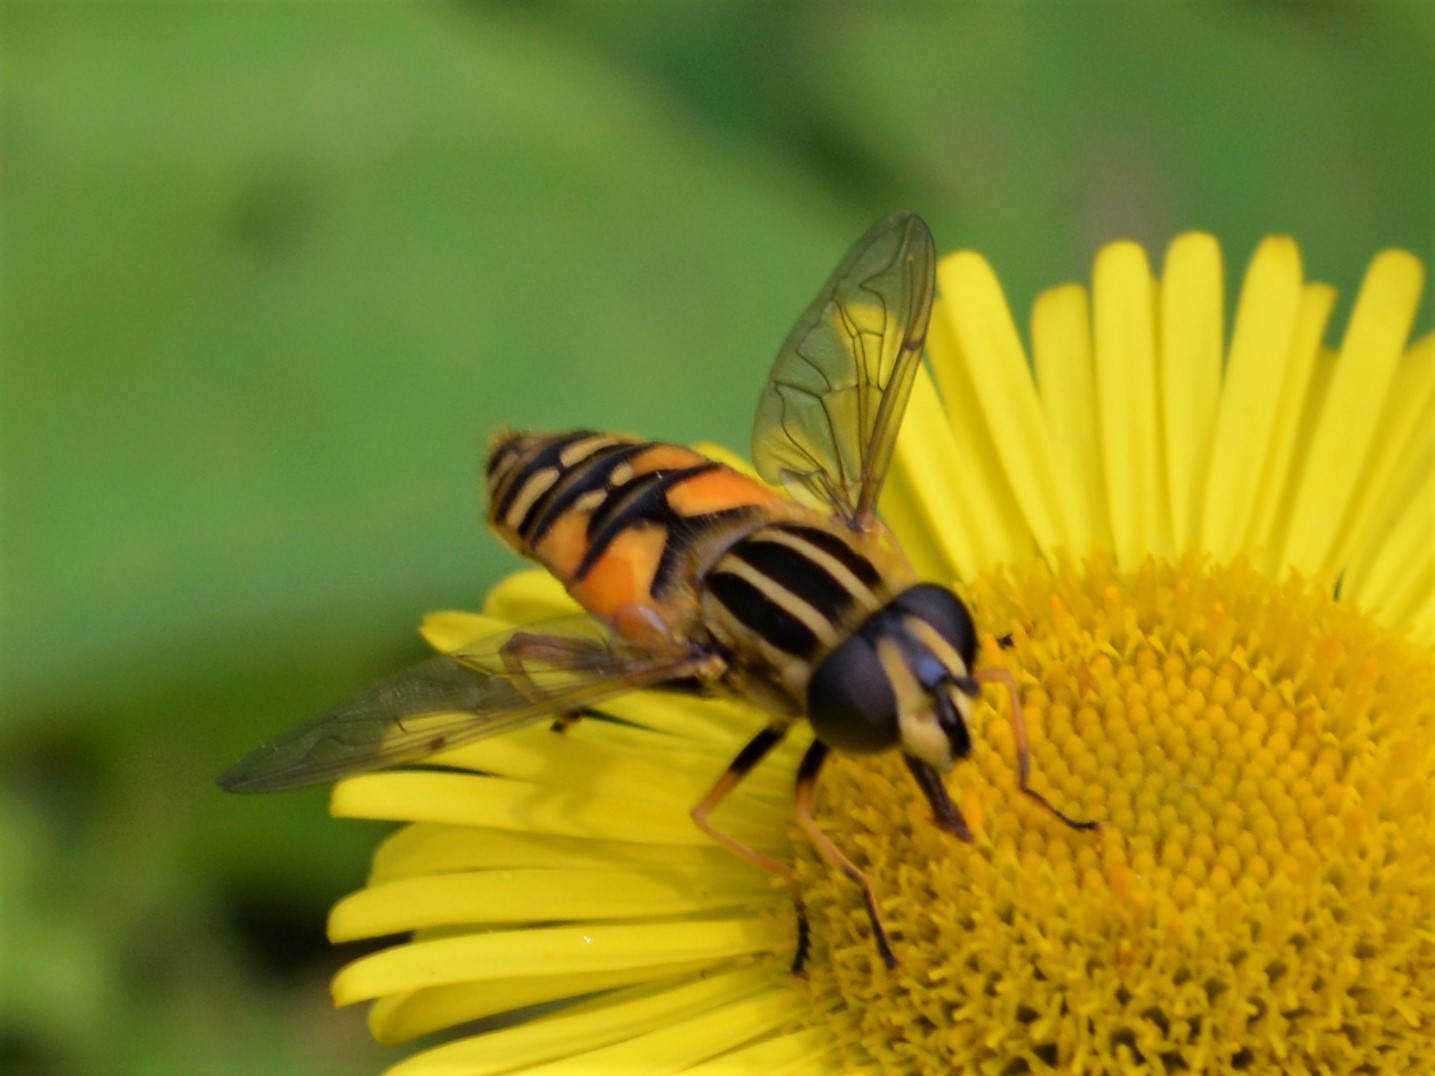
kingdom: Animalia
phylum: Arthropoda
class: Insecta
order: Diptera
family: Syrphidae
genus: Helophilus
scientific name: Helophilus pendulus
